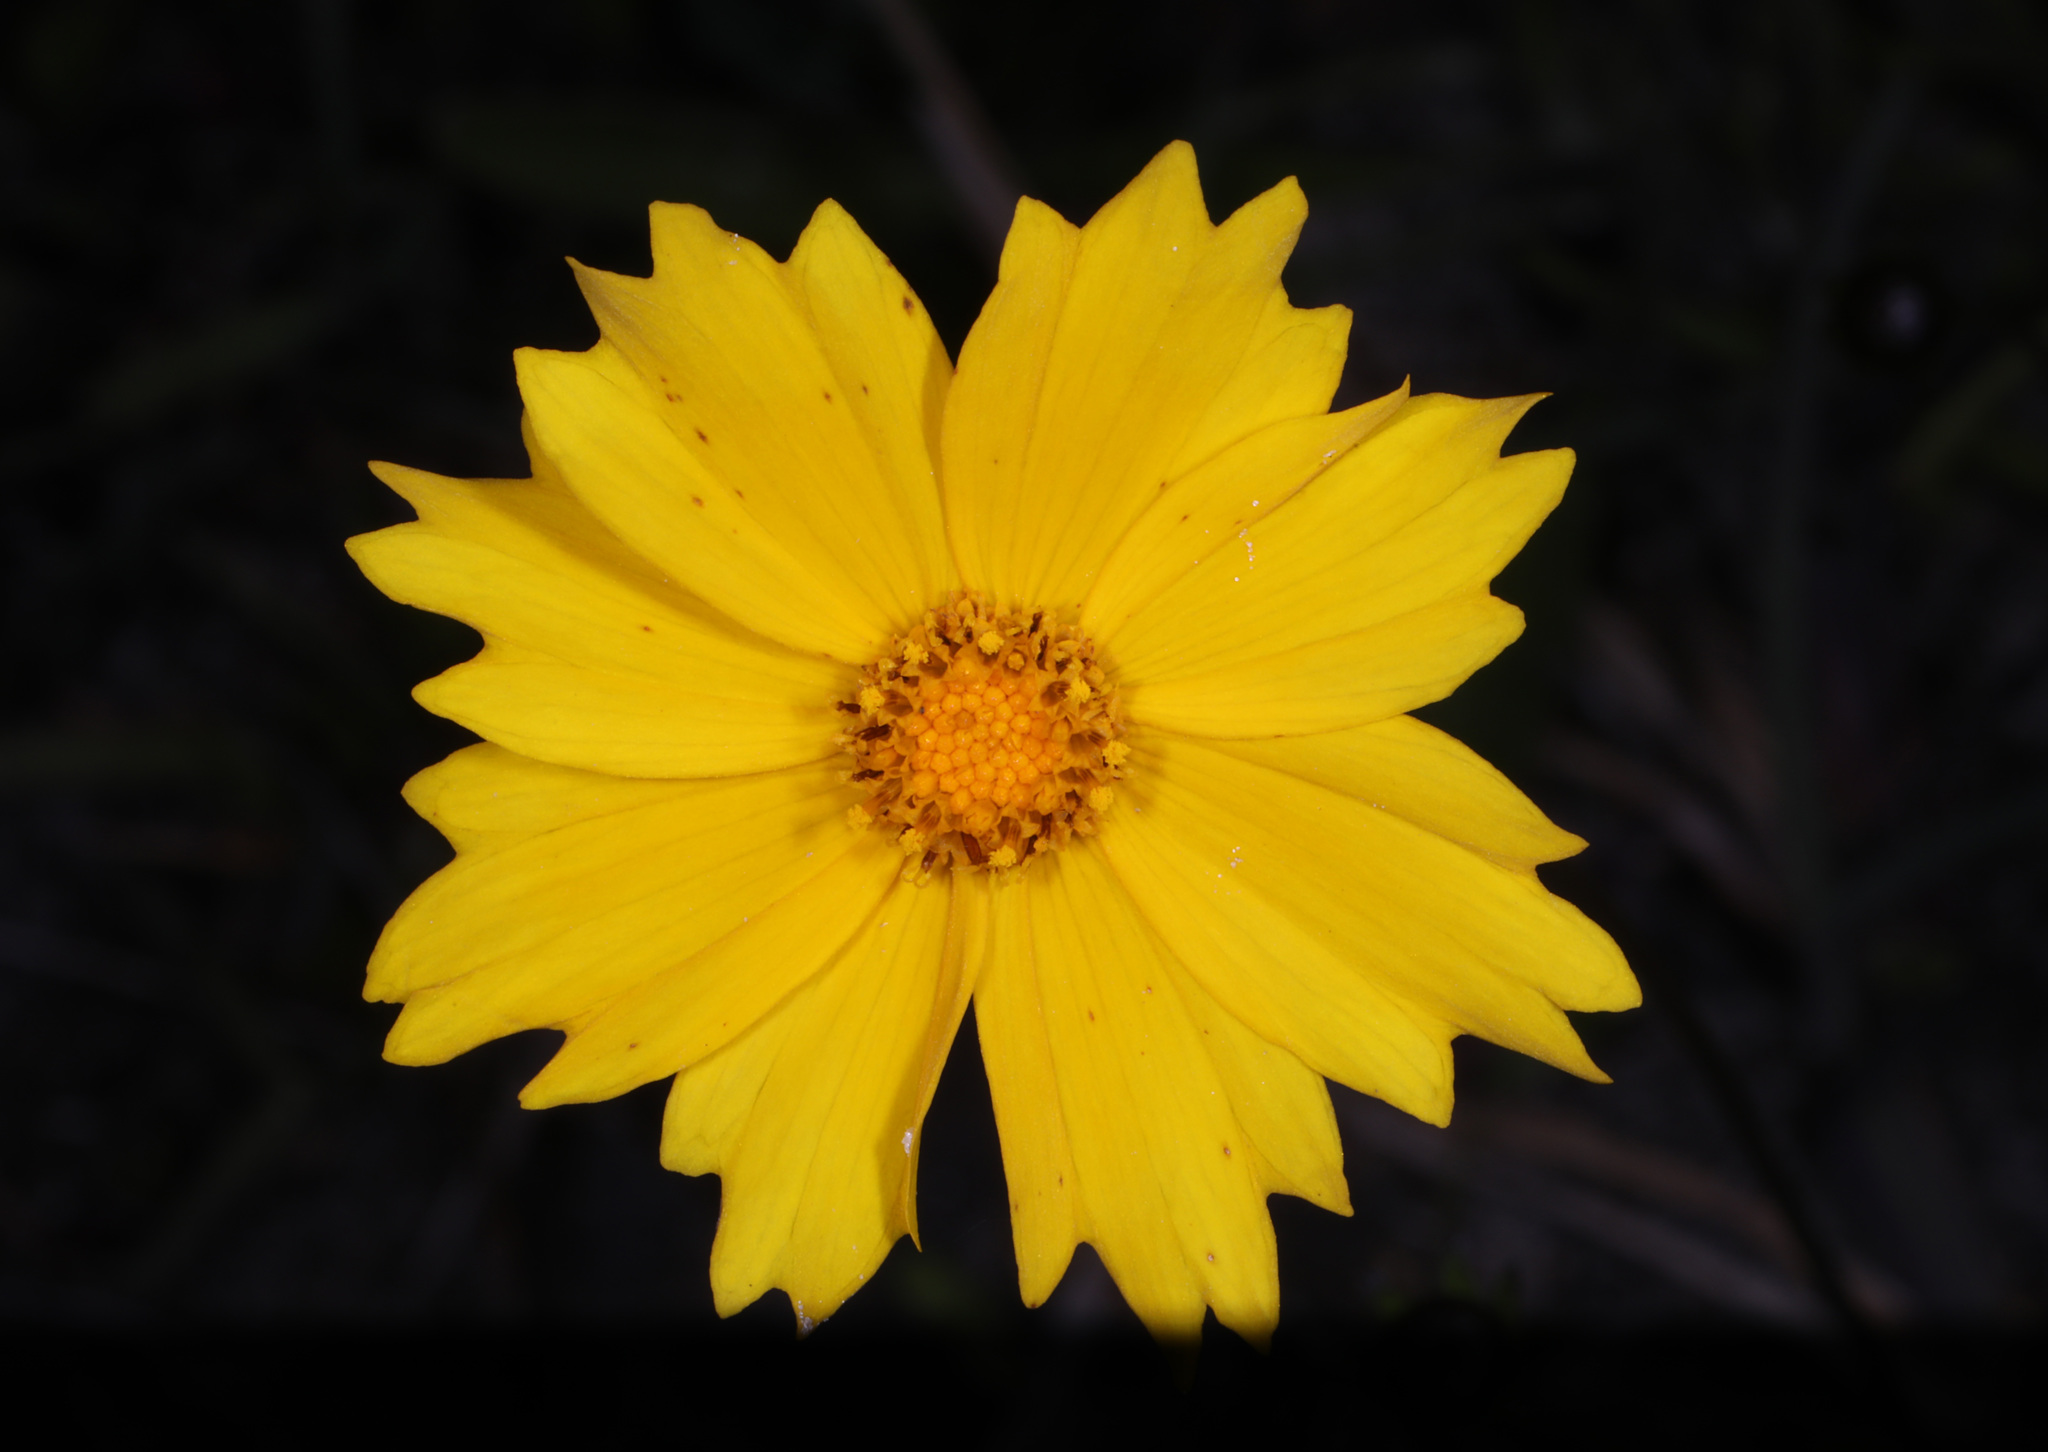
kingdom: Plantae
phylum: Tracheophyta
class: Magnoliopsida
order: Asterales
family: Asteraceae
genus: Coreopsis
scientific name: Coreopsis lanceolata
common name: Garden coreopsis
